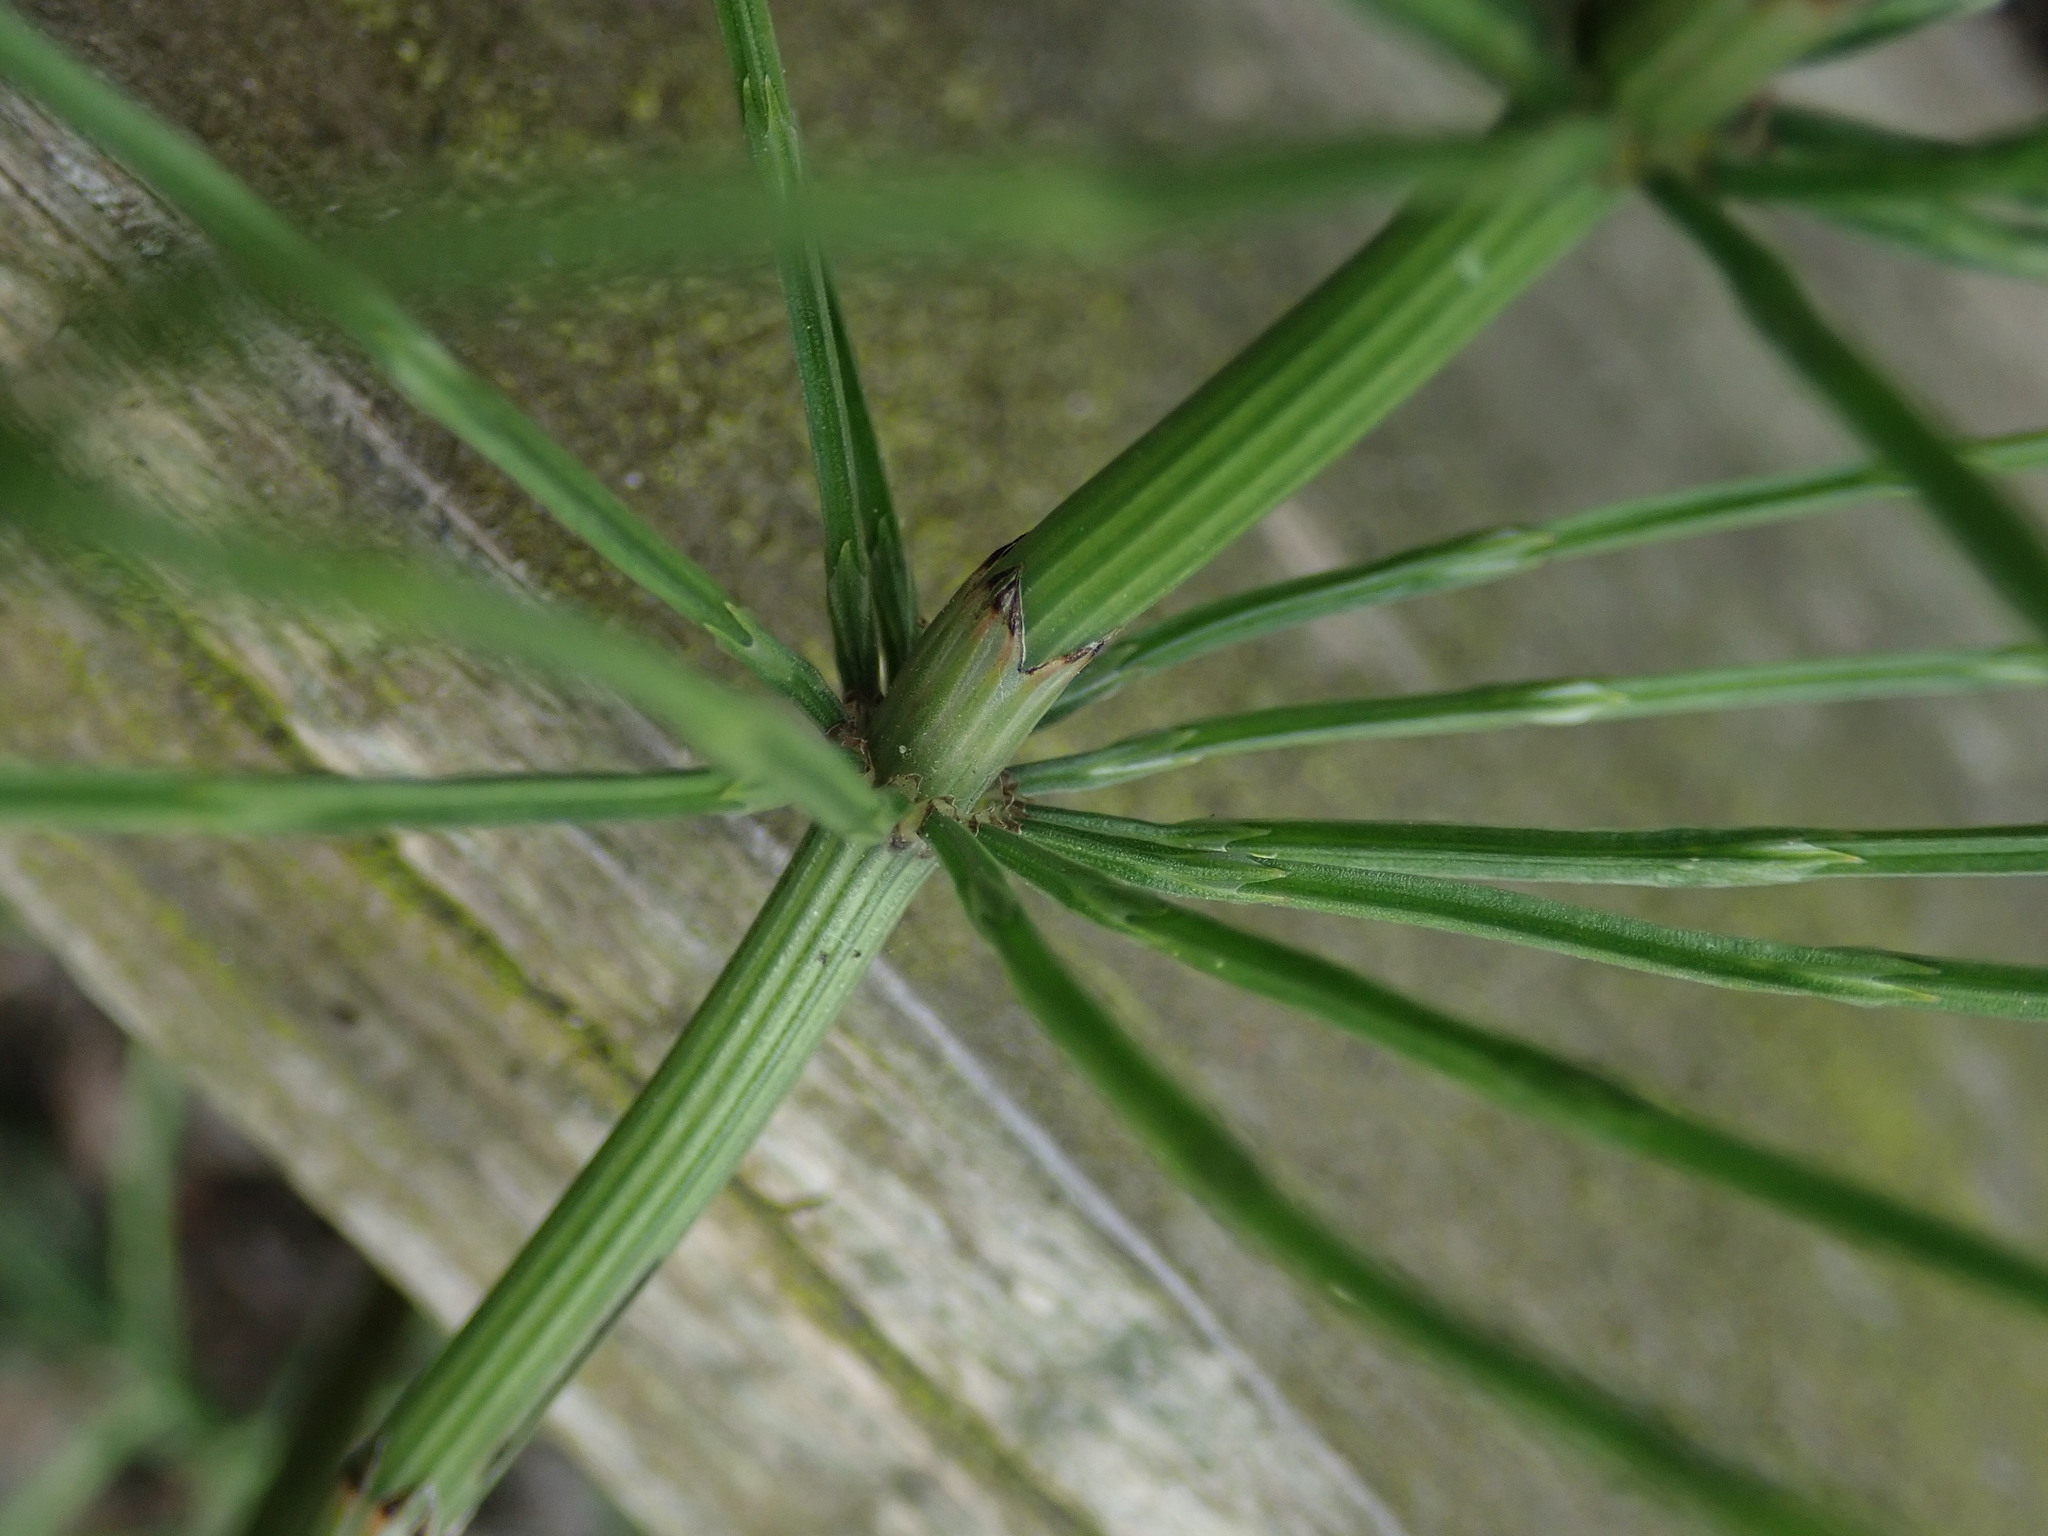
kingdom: Plantae
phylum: Tracheophyta
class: Polypodiopsida
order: Equisetales
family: Equisetaceae
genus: Equisetum
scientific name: Equisetum arvense
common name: Field horsetail
